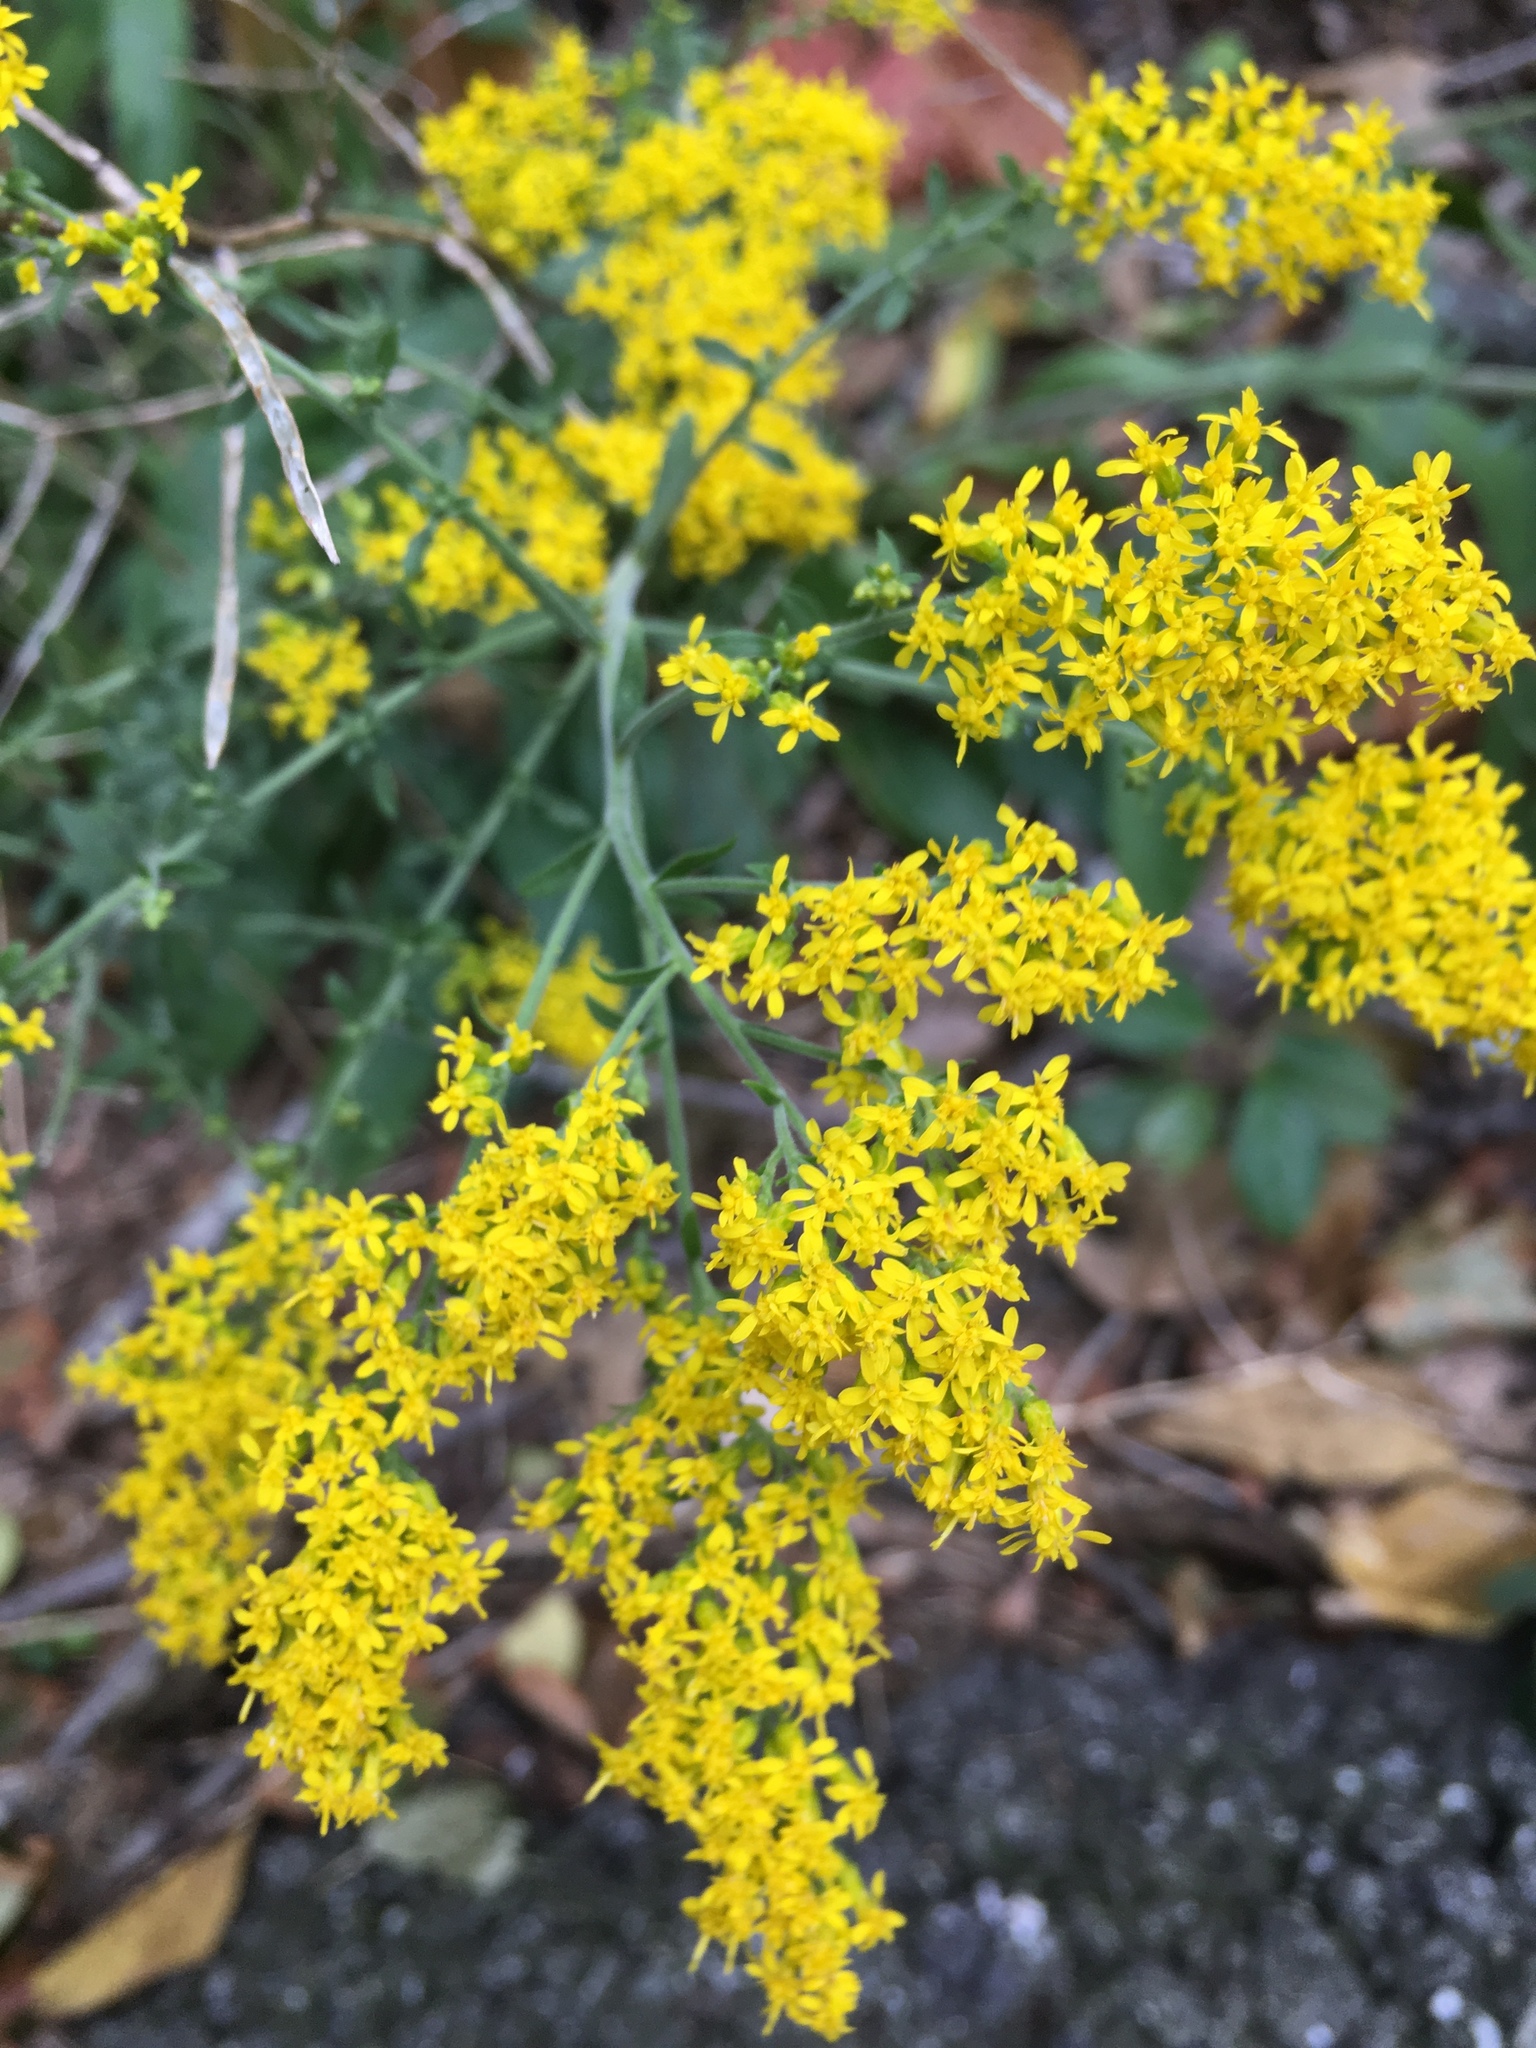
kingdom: Plantae
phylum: Tracheophyta
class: Magnoliopsida
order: Asterales
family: Asteraceae
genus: Solidago
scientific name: Solidago nemoralis
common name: Grey goldenrod
